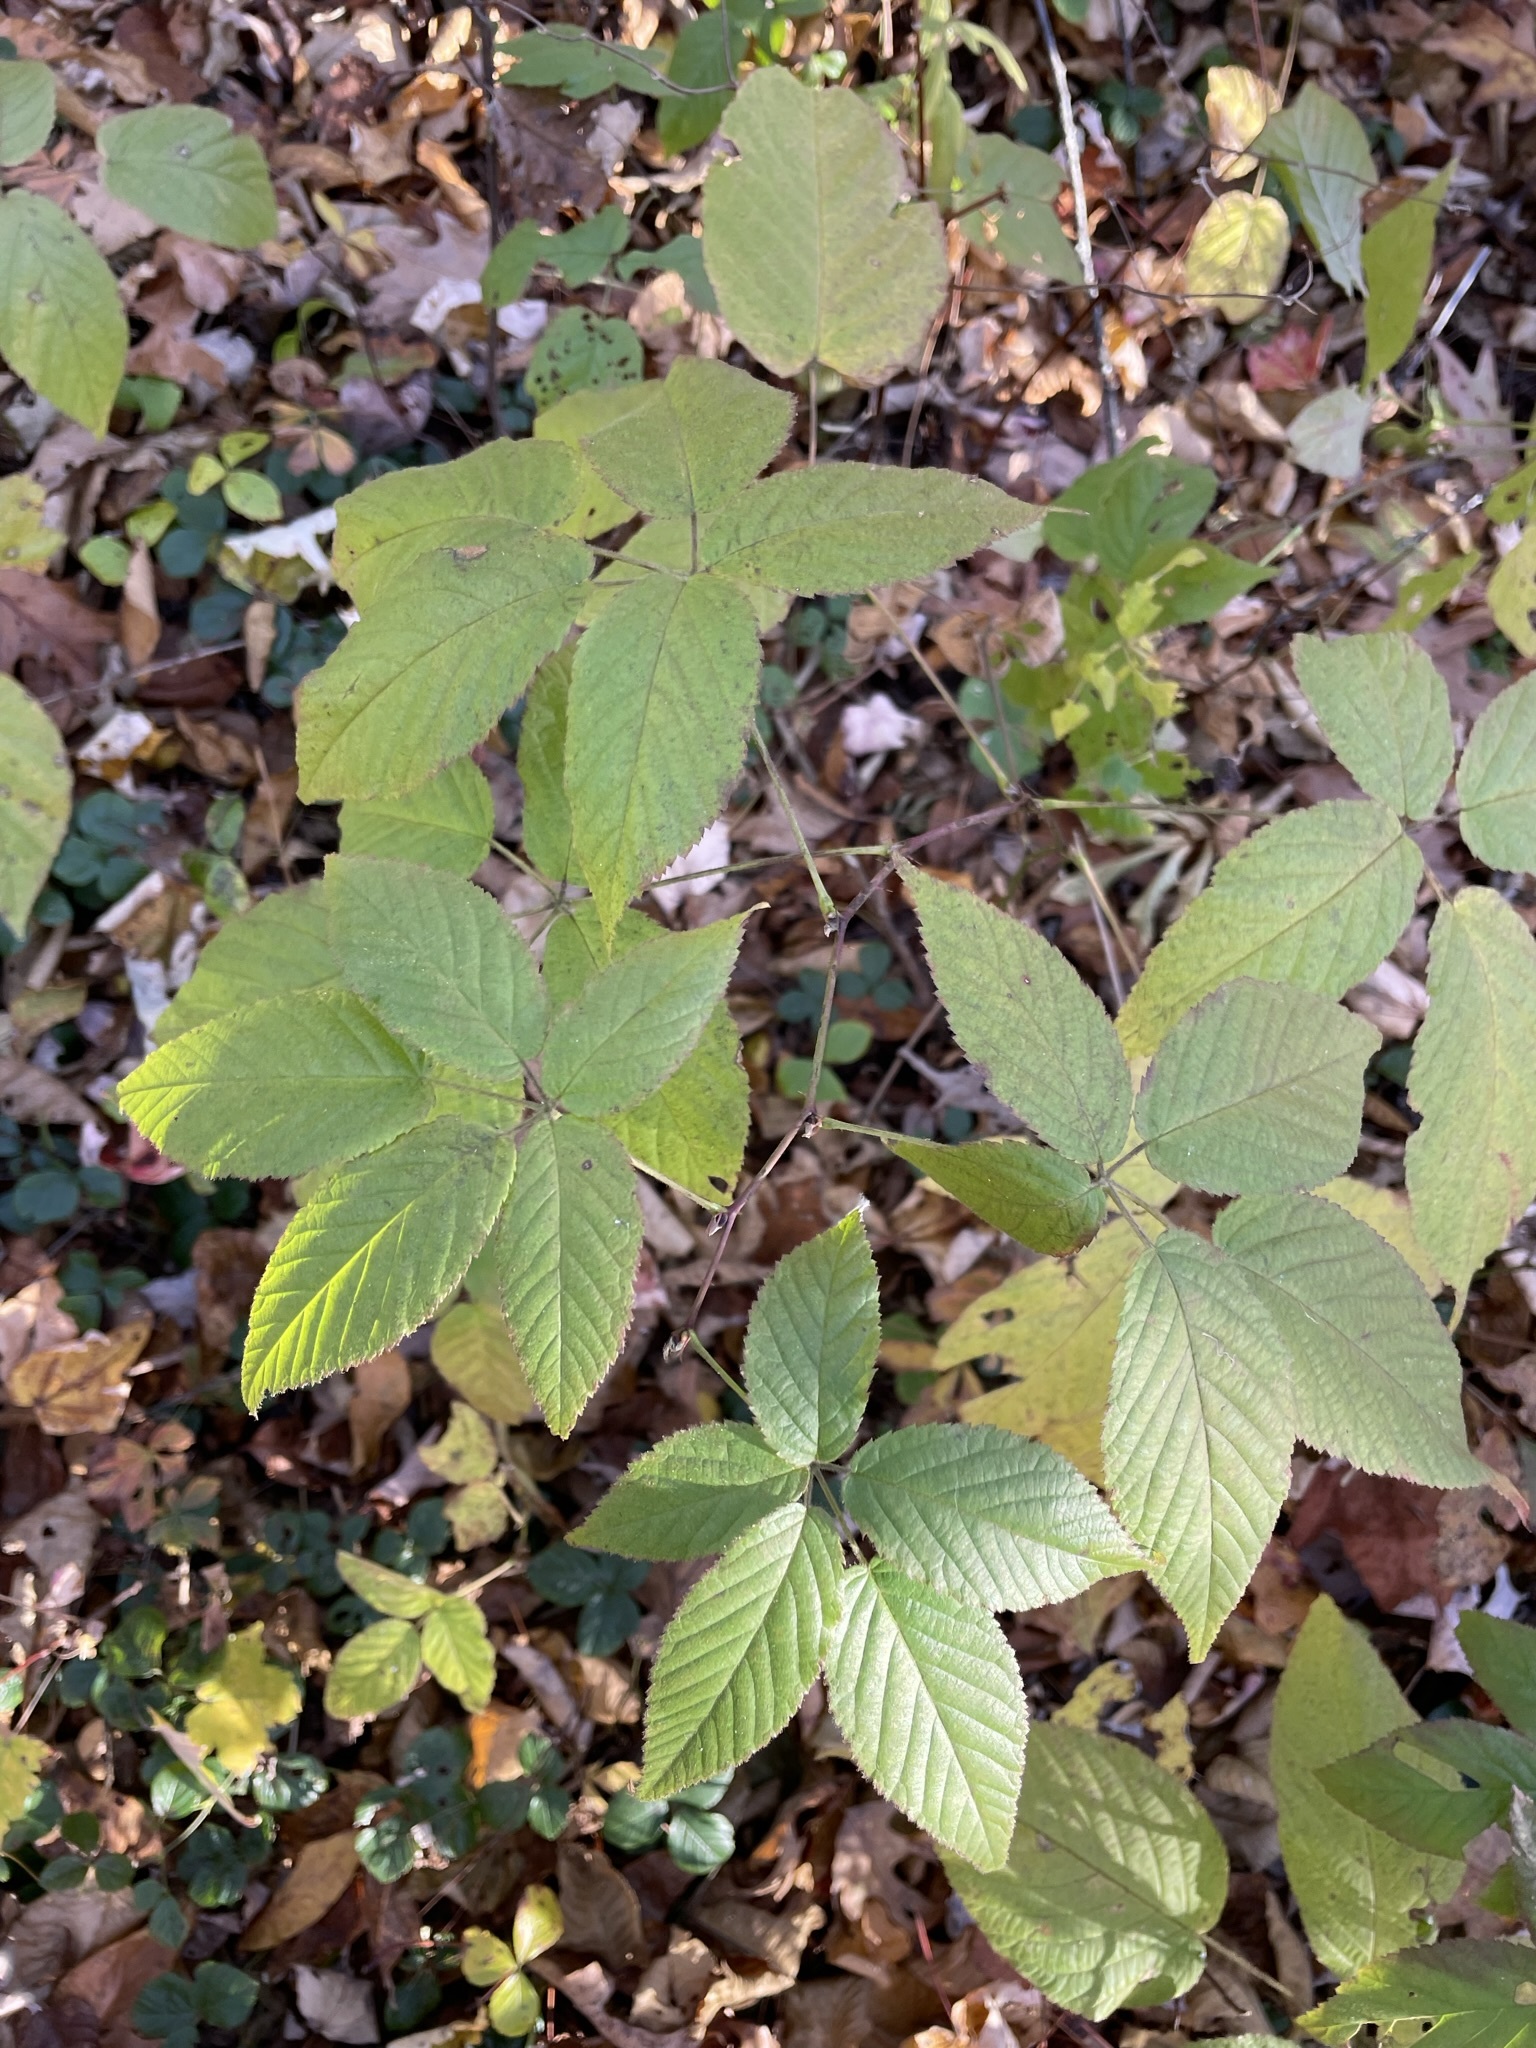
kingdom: Plantae
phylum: Tracheophyta
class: Magnoliopsida
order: Rosales
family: Rosaceae
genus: Rubus
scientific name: Rubus canadensis
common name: Smooth blackberry
